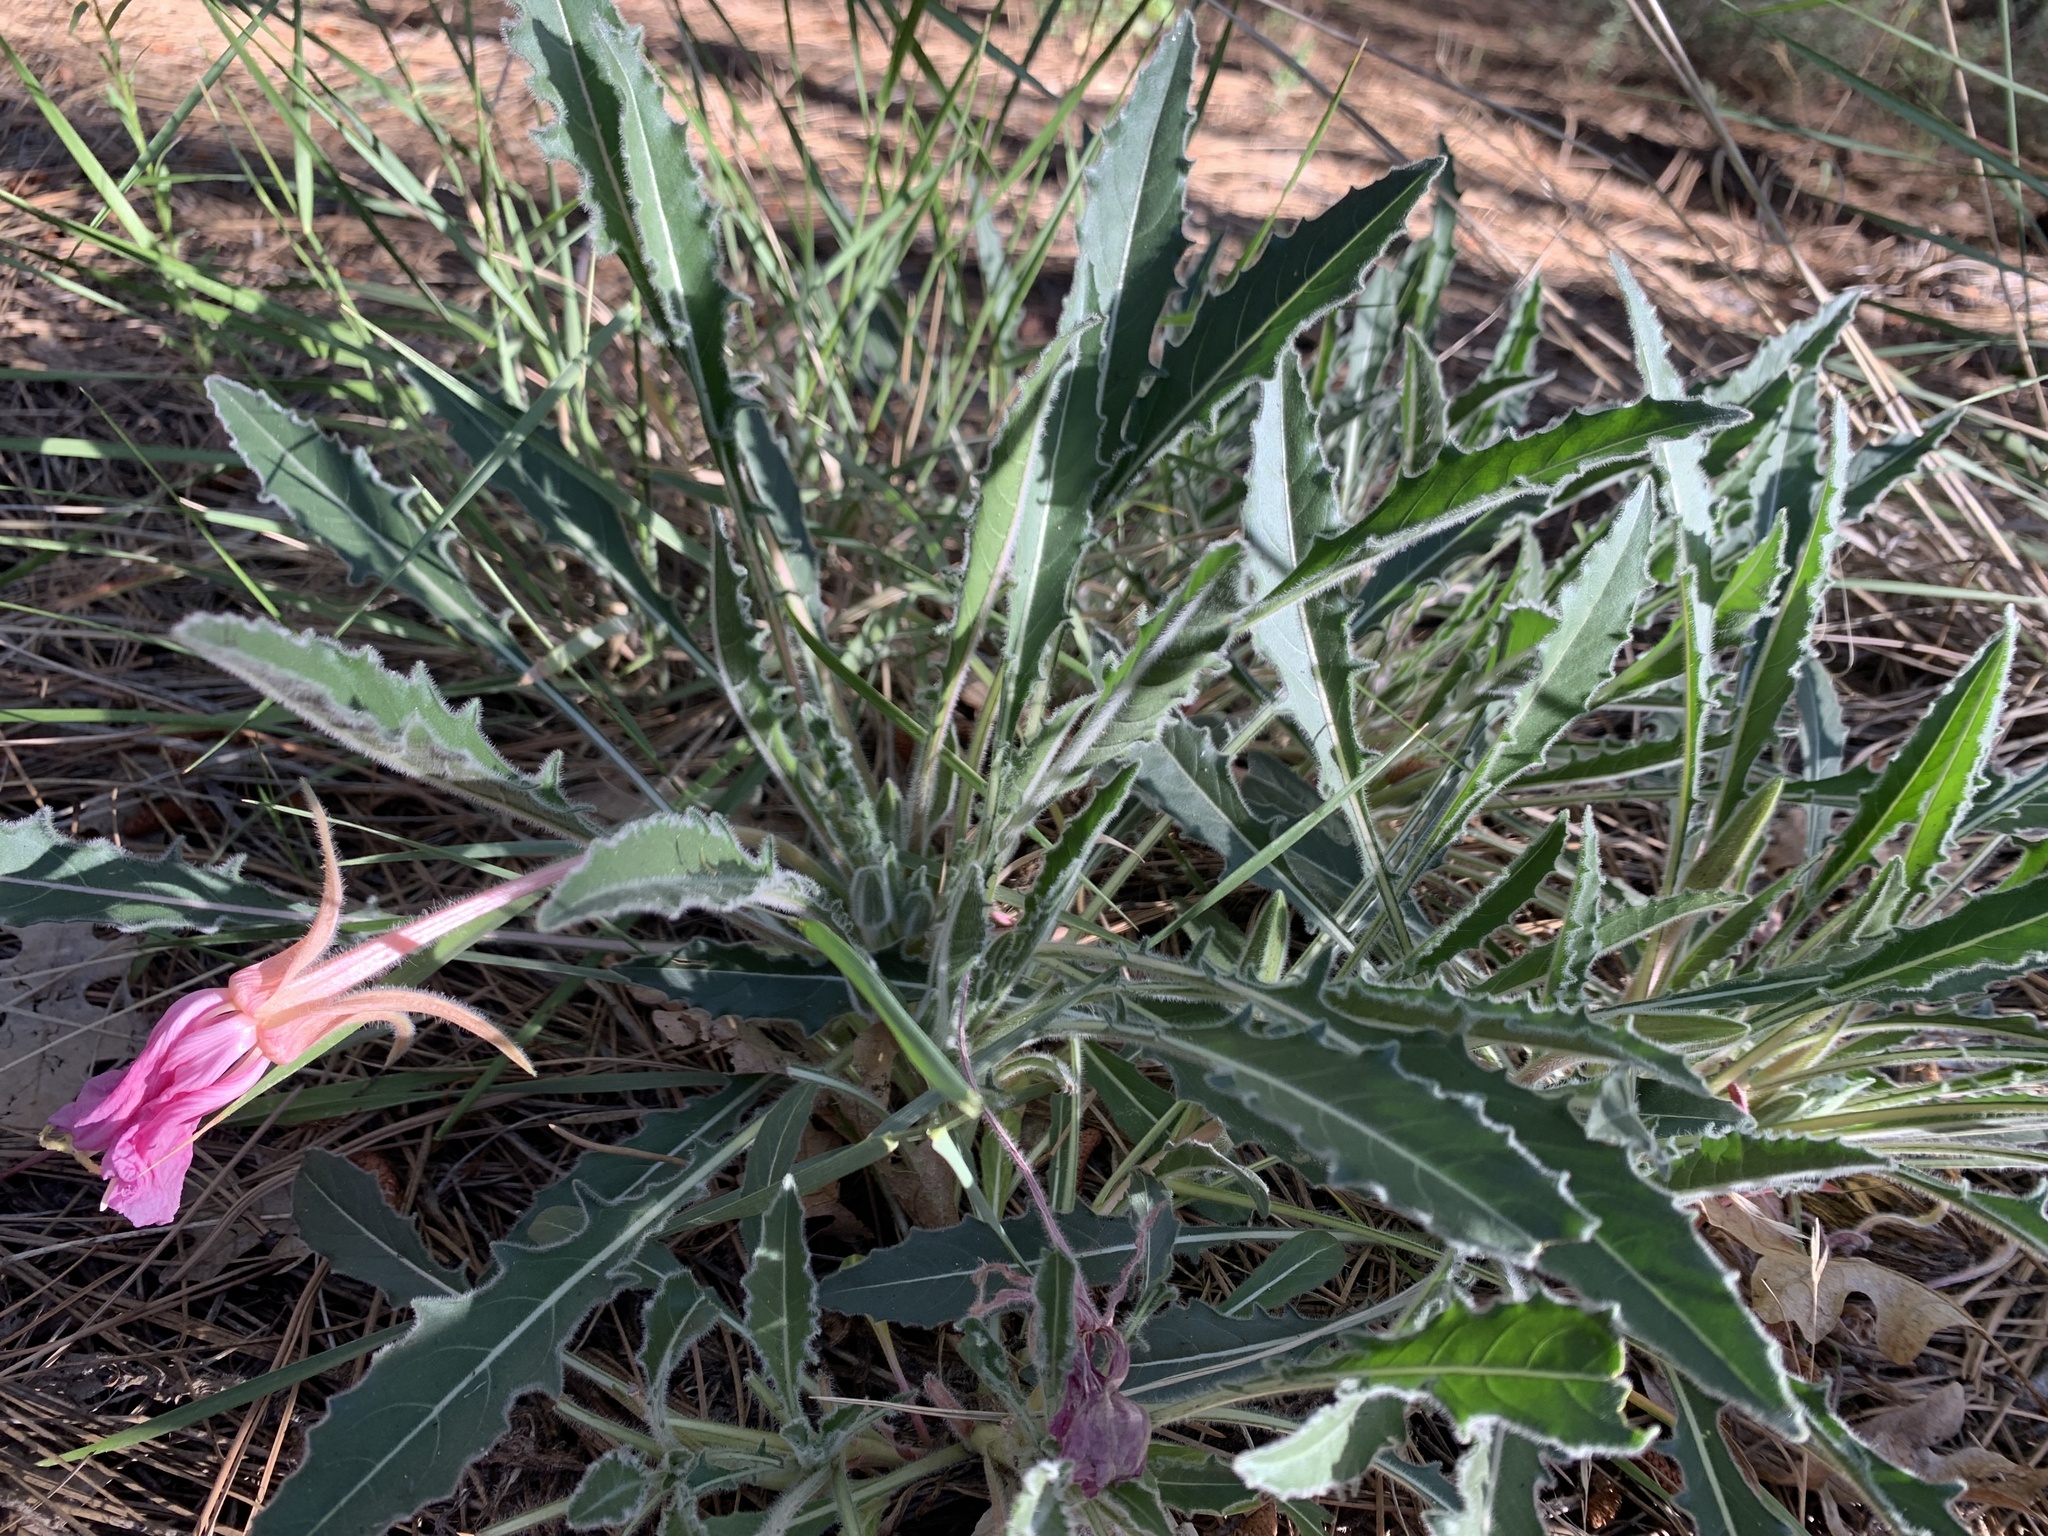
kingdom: Plantae
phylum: Tracheophyta
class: Magnoliopsida
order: Myrtales
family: Onagraceae
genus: Oenothera
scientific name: Oenothera cespitosa
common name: Tufted evening-primrose
